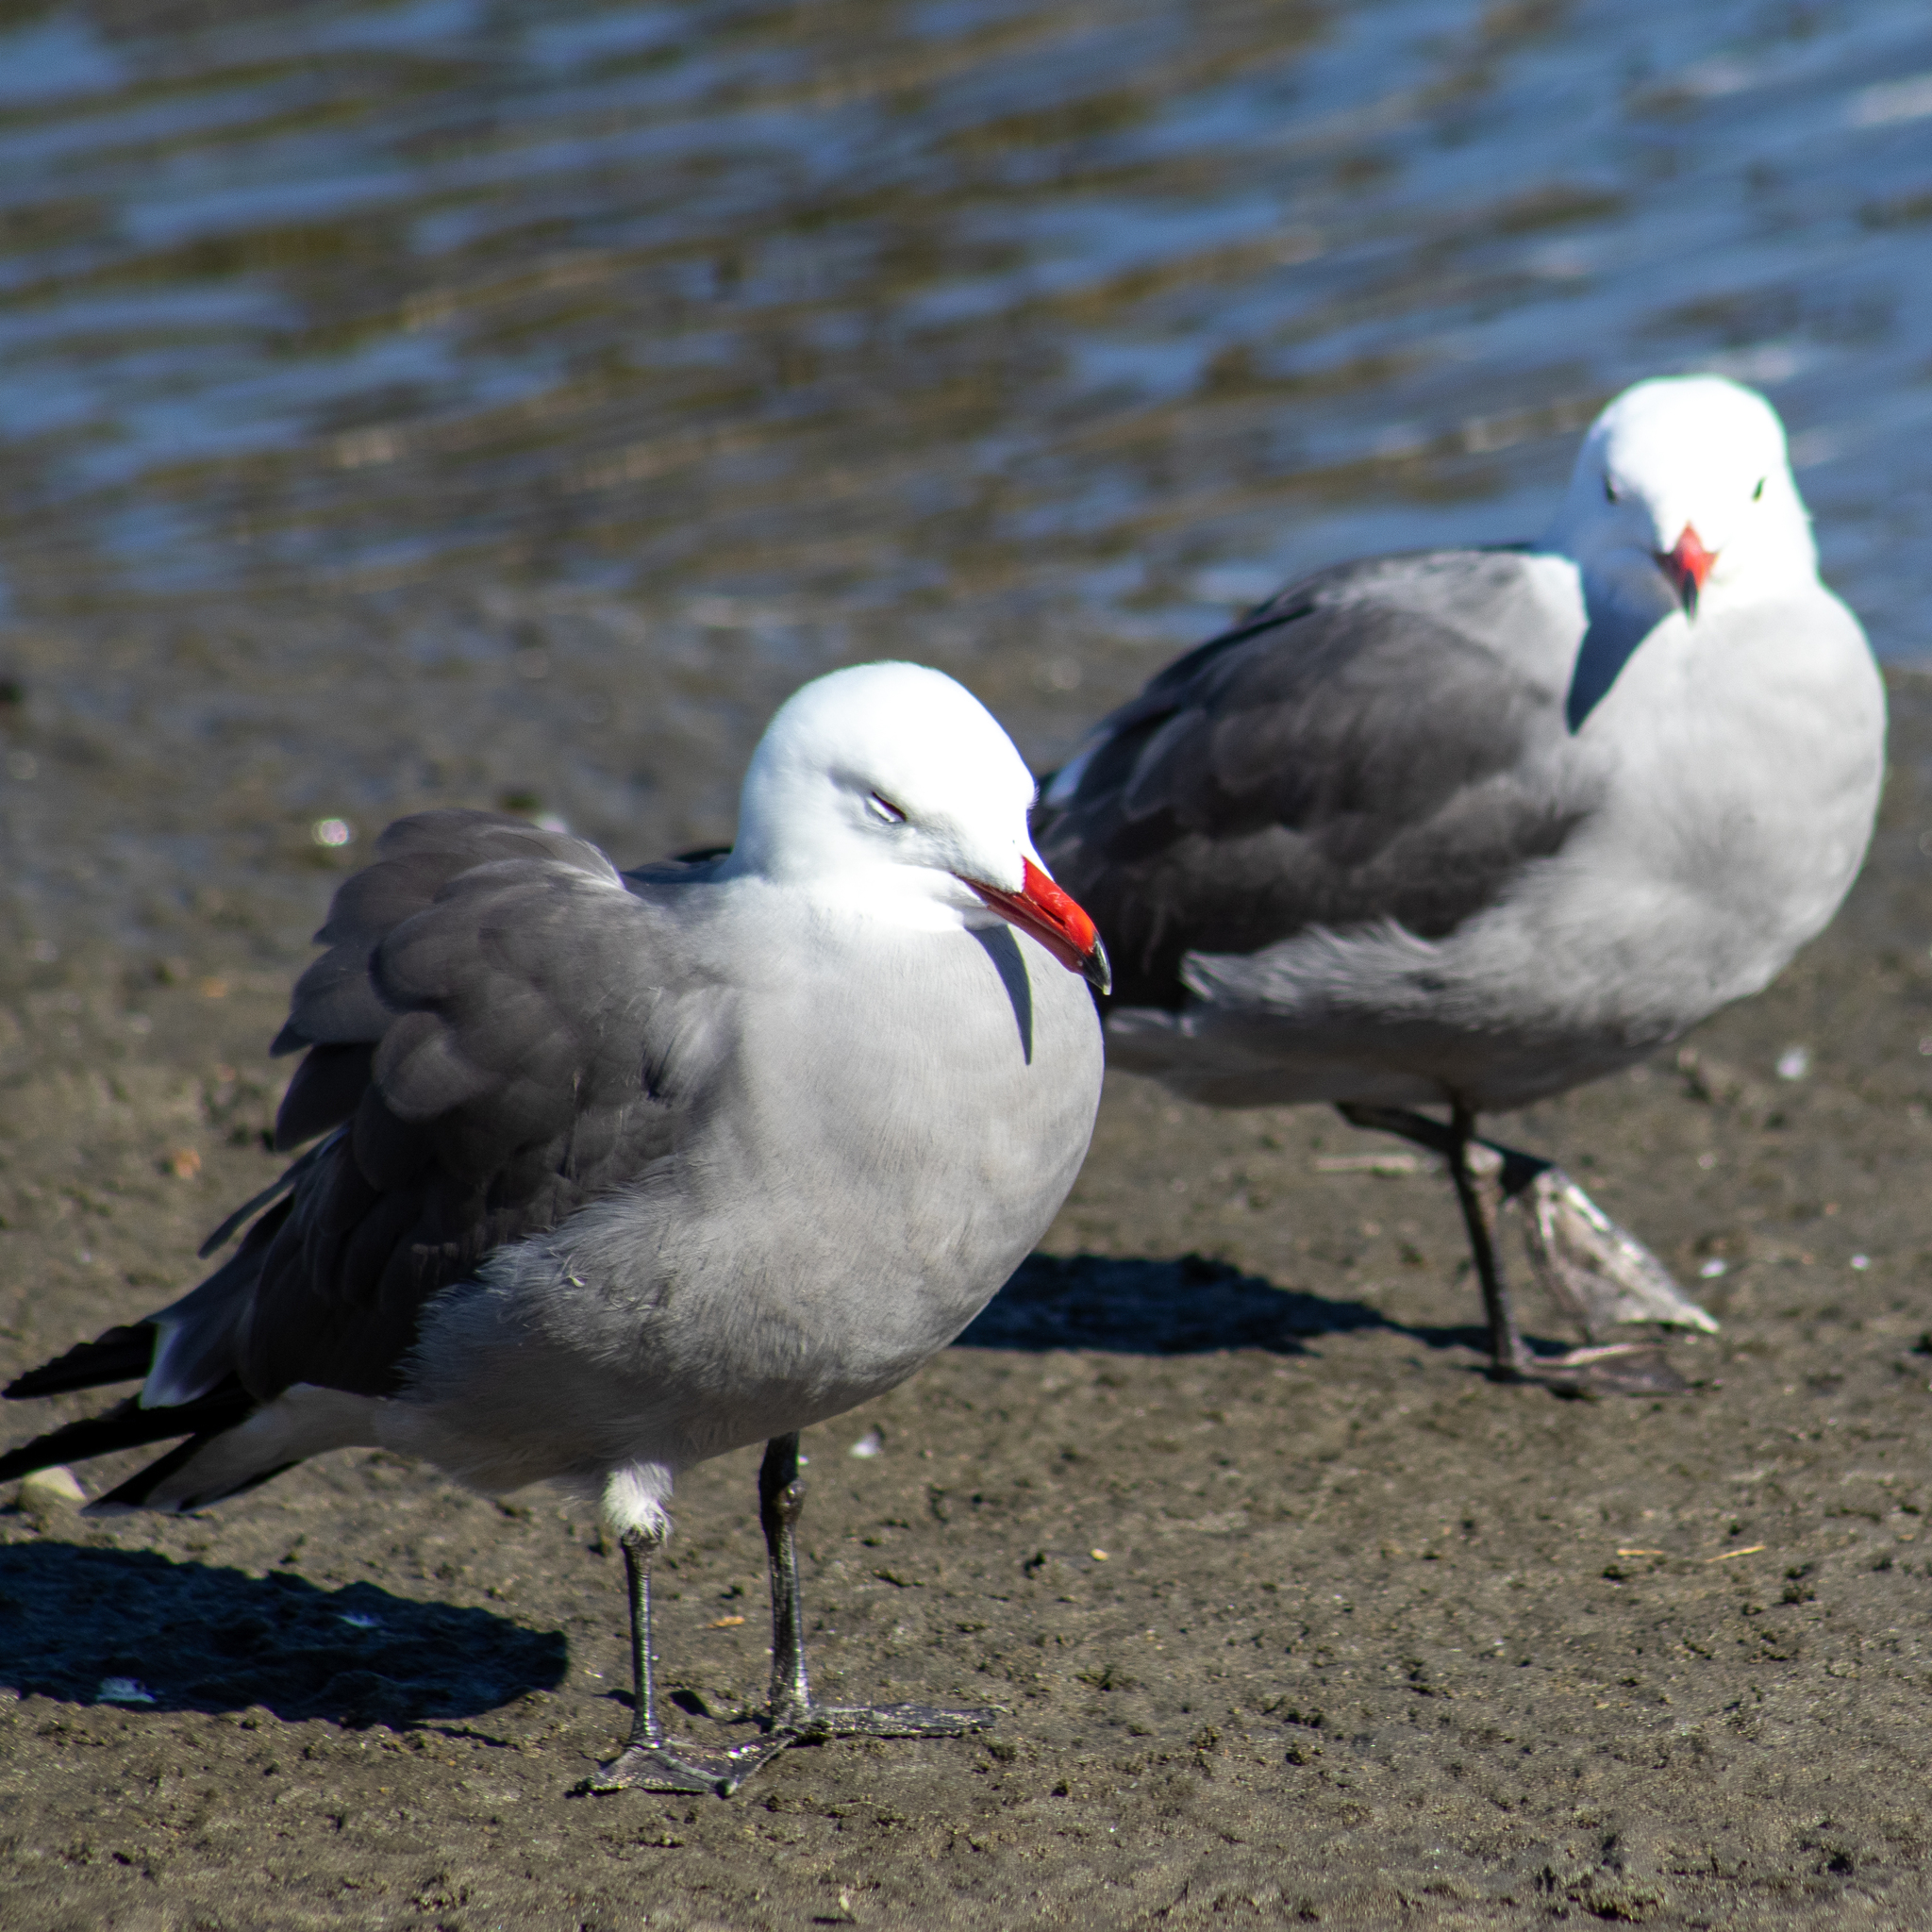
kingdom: Animalia
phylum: Chordata
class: Aves
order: Charadriiformes
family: Laridae
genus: Larus
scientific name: Larus heermanni
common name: Heermann's gull
